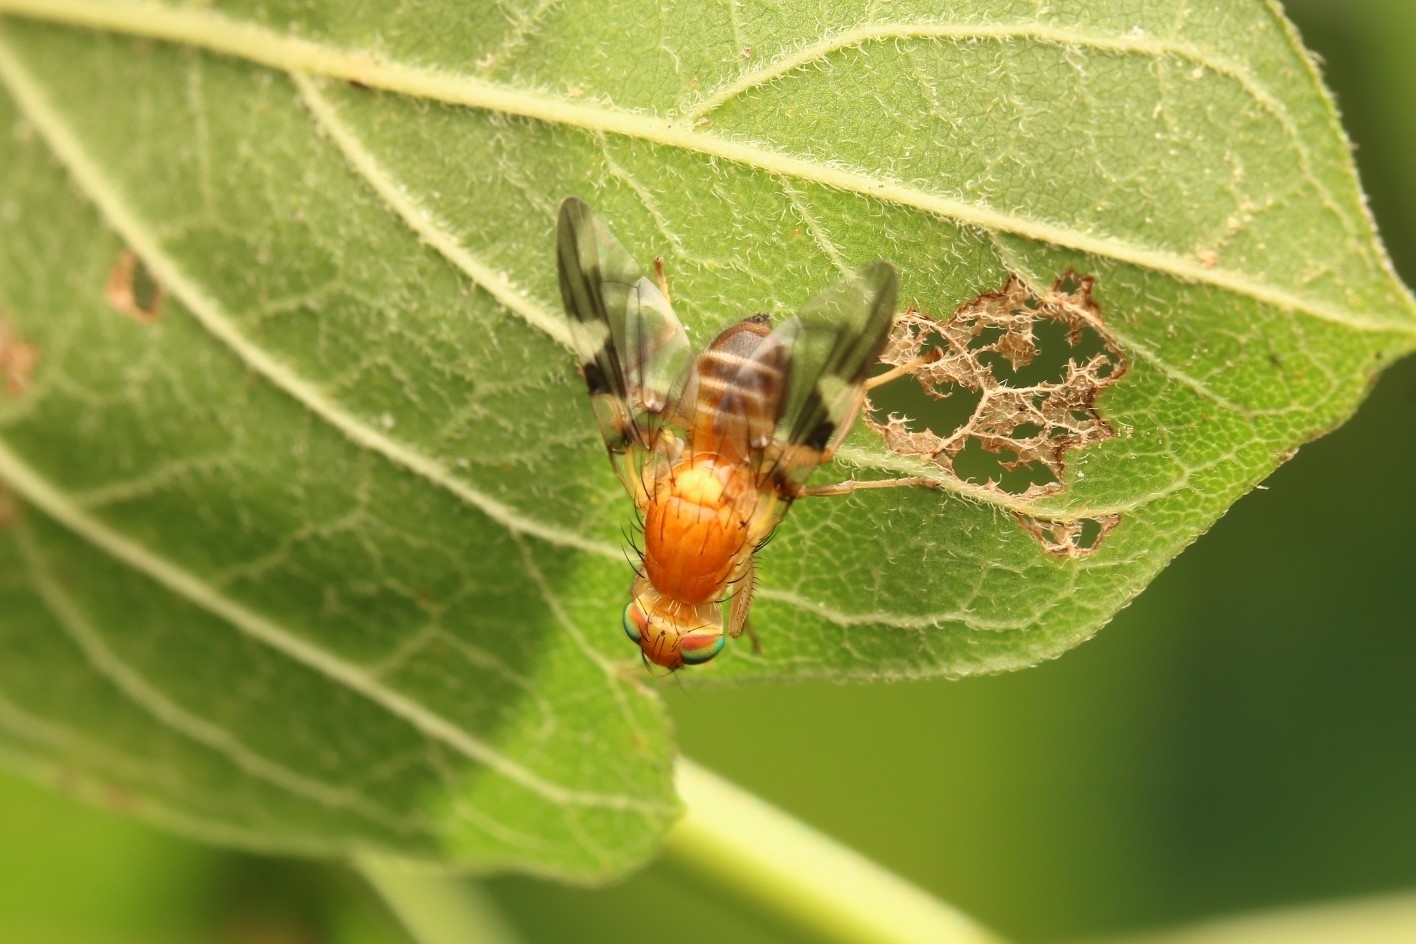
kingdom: Animalia
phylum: Arthropoda
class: Insecta
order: Diptera
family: Tephritidae
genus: Rhagoletis
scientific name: Rhagoletis suavis
